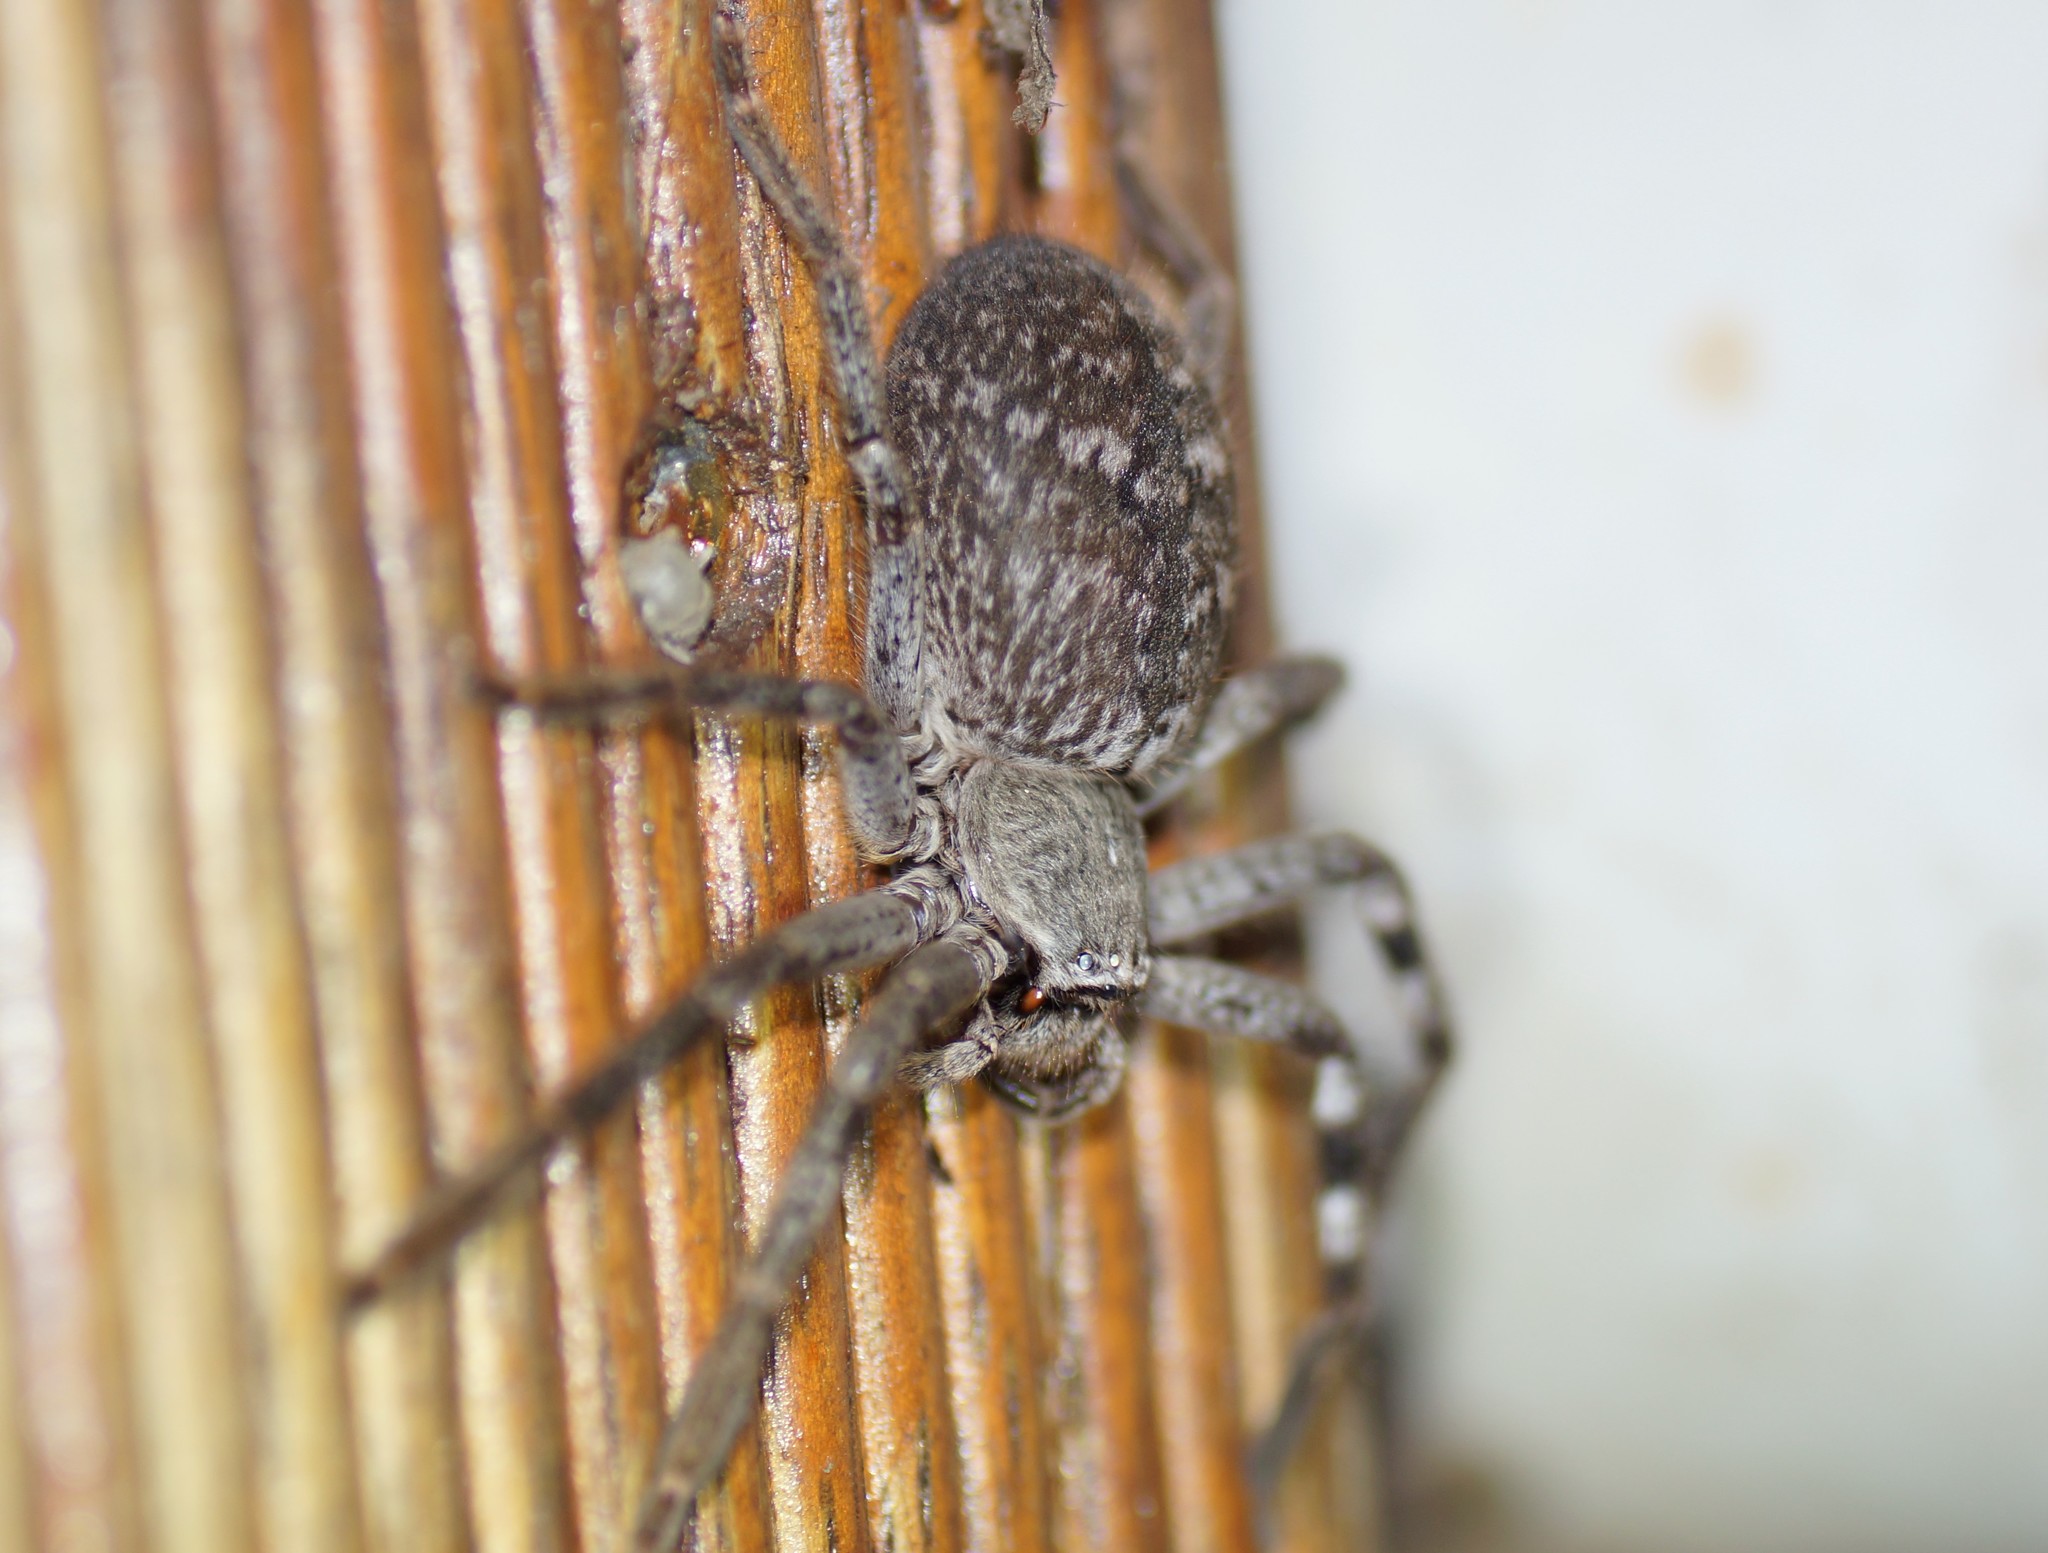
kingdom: Animalia
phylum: Arthropoda
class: Arachnida
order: Araneae
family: Sparassidae
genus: Isopedella
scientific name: Isopedella victorialis
